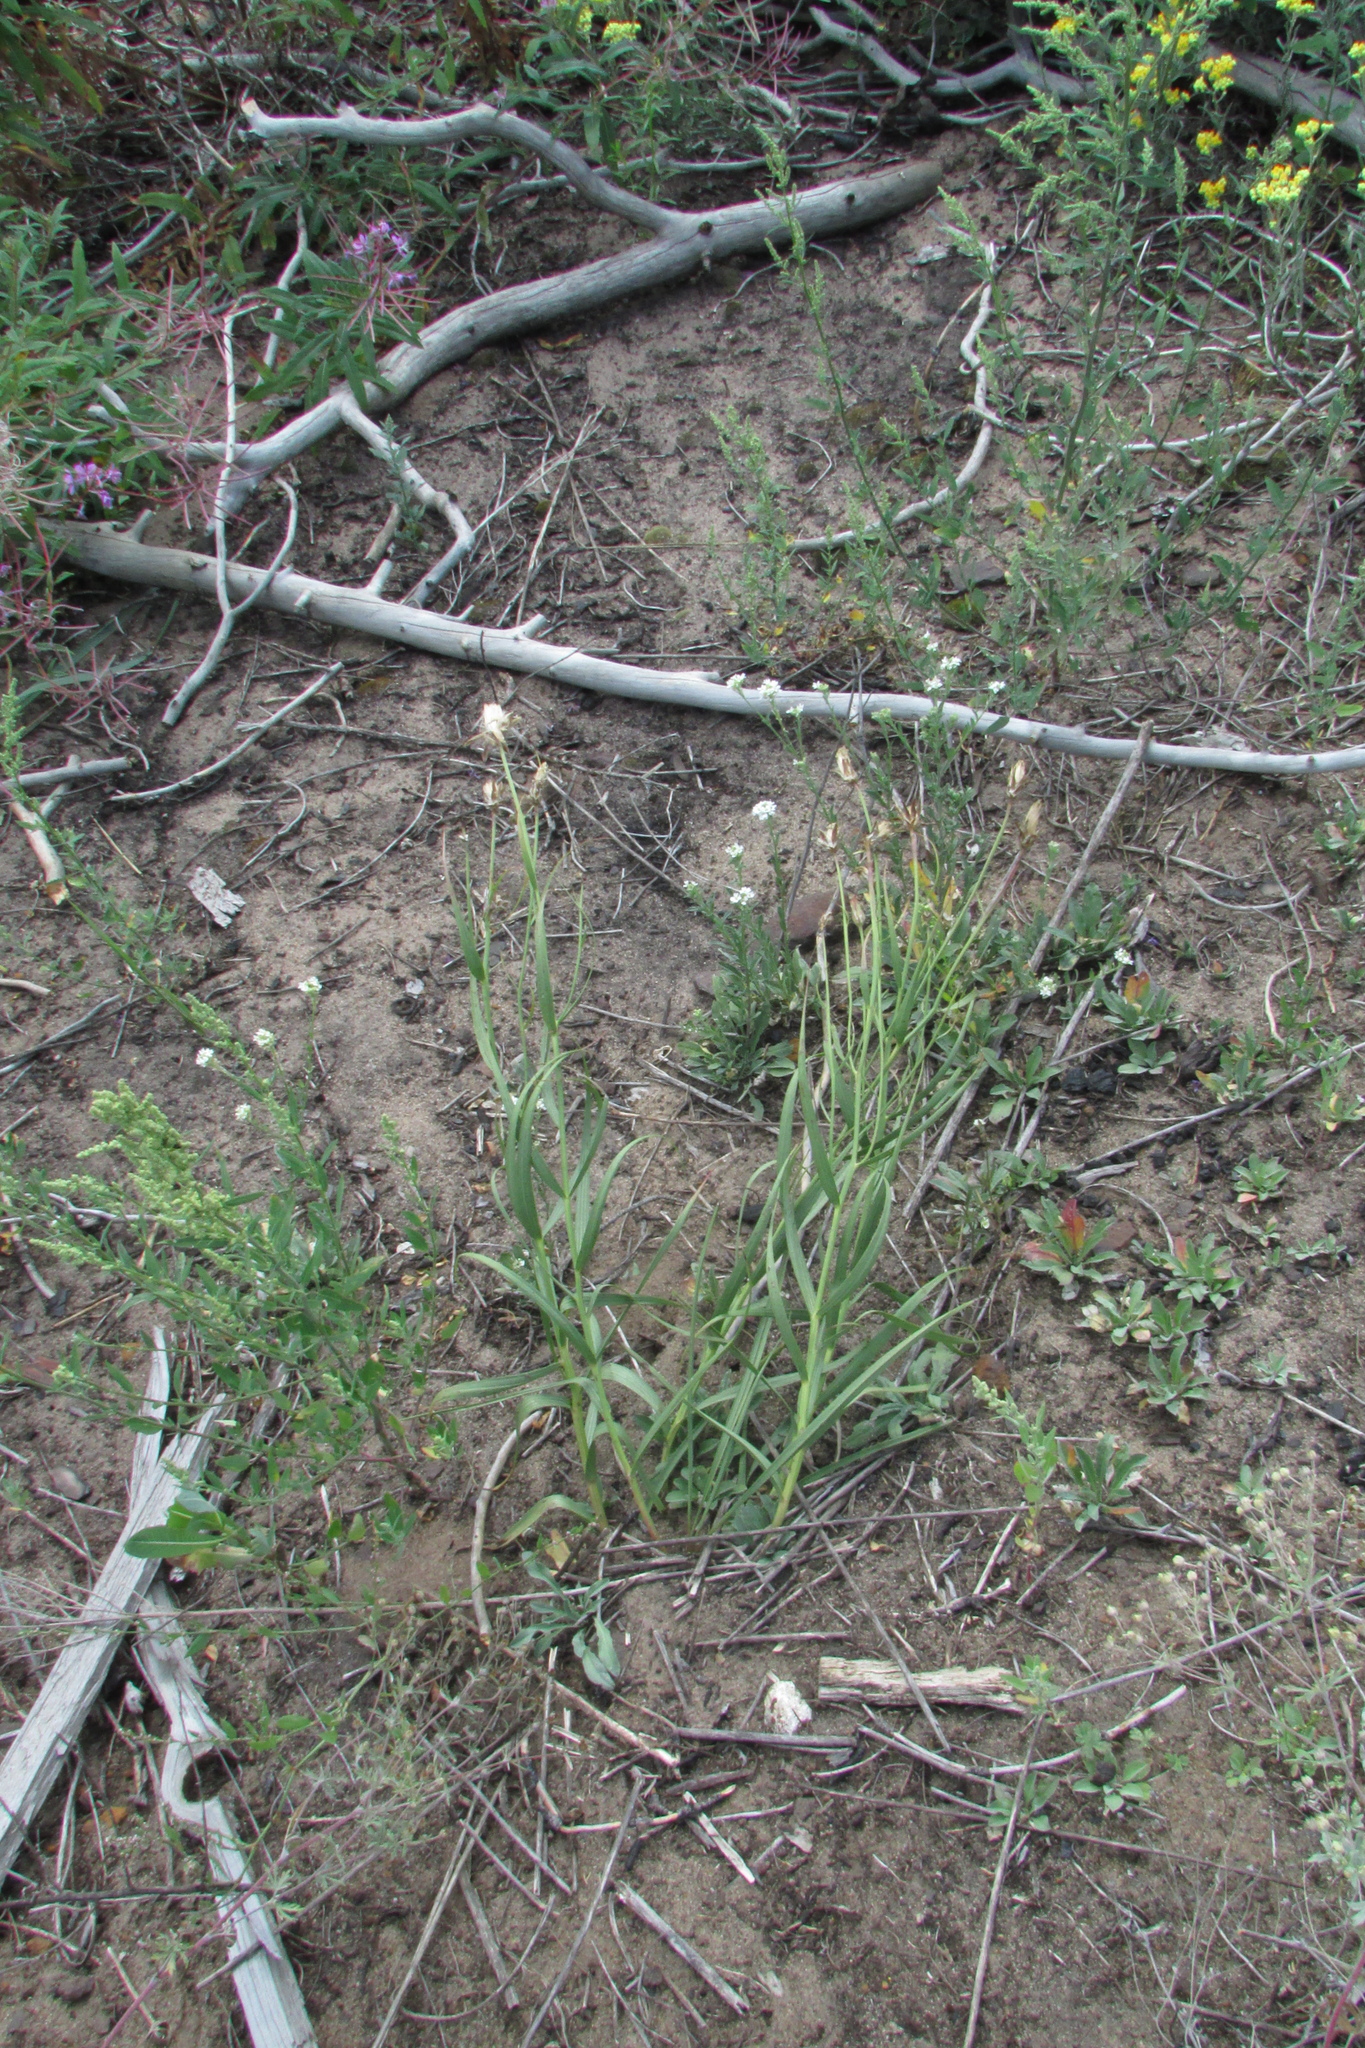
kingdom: Plantae
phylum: Tracheophyta
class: Magnoliopsida
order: Asterales
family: Asteraceae
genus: Gelasia
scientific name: Gelasia ensifolia
